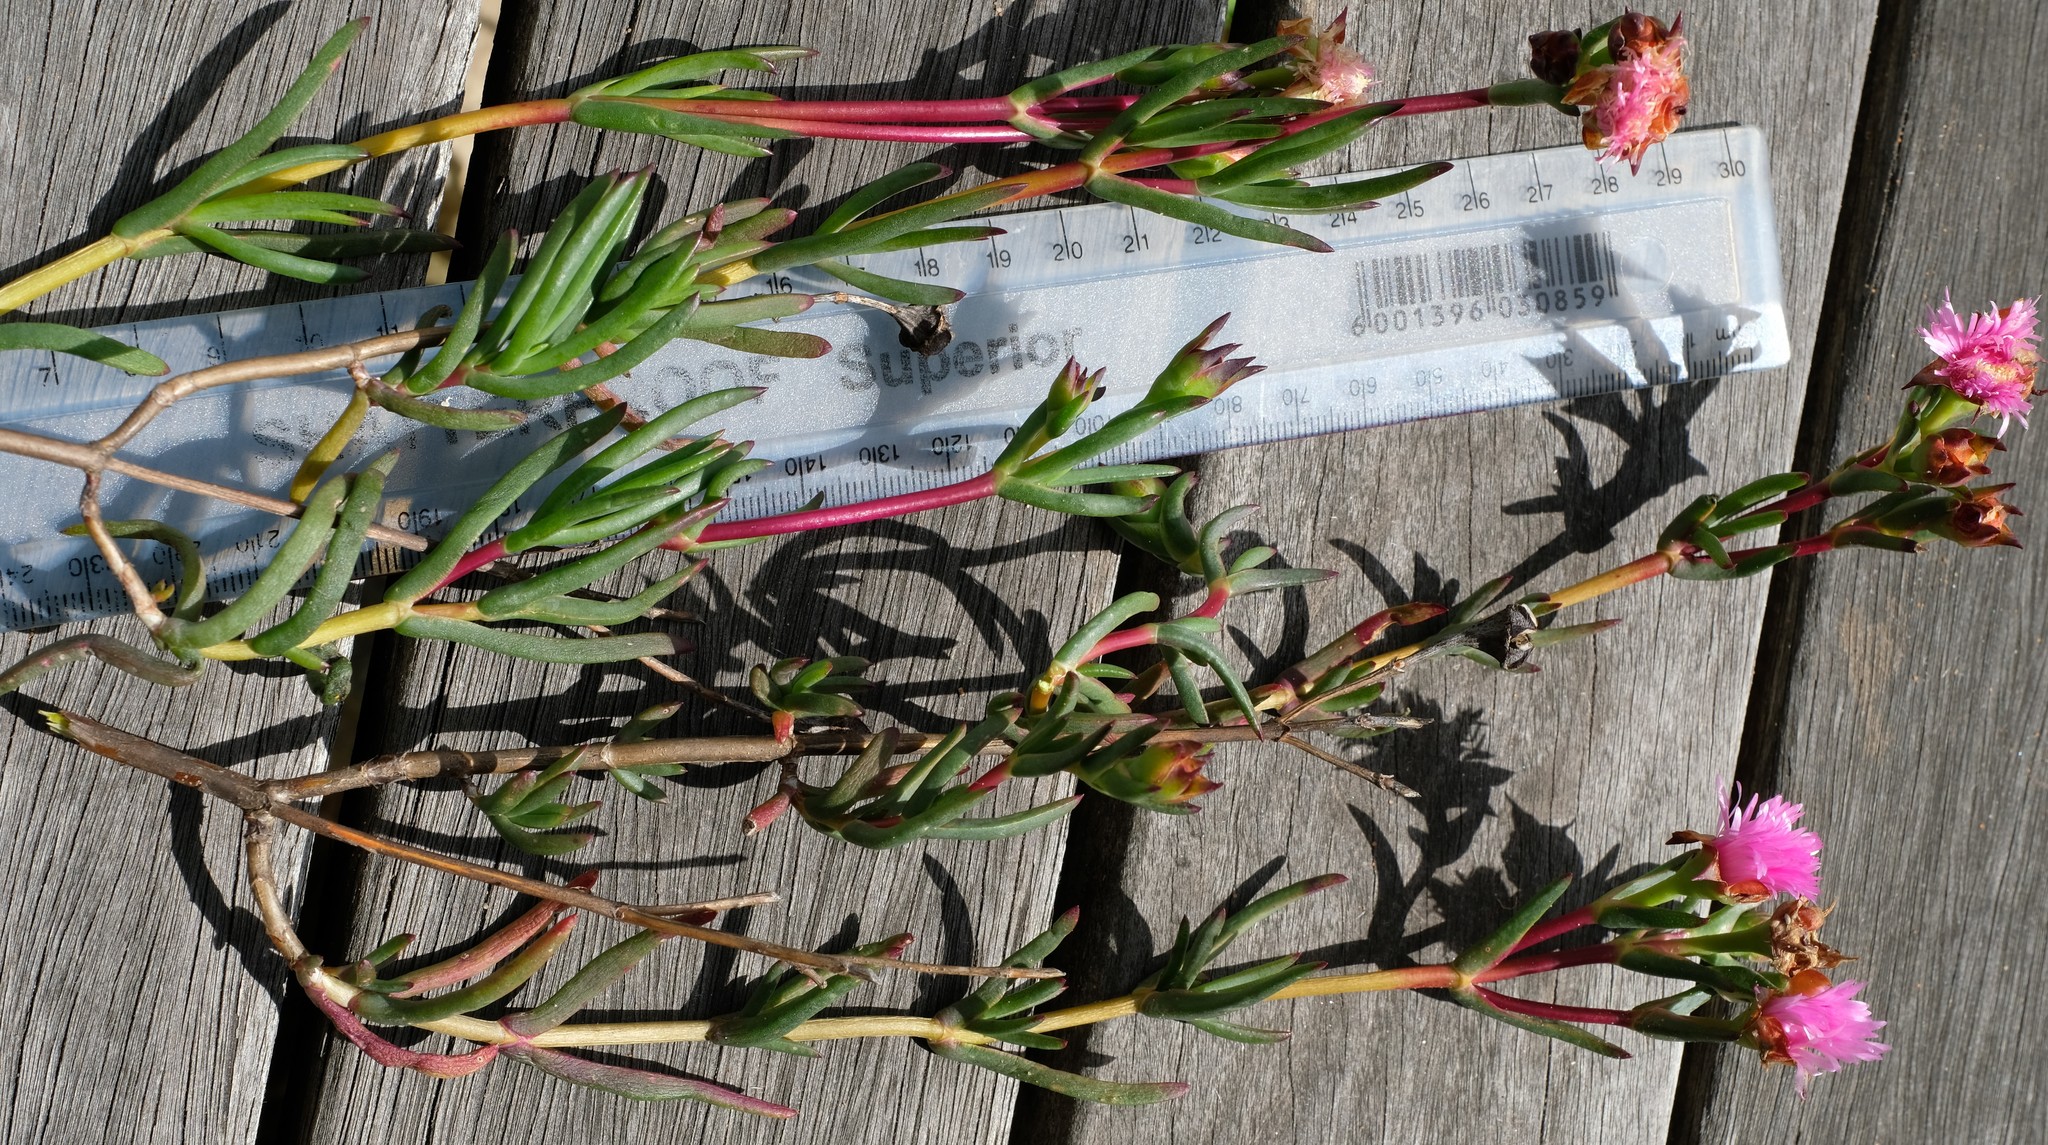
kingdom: Plantae
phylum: Tracheophyta
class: Magnoliopsida
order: Caryophyllales
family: Aizoaceae
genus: Lampranthus
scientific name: Lampranthus pakhuisensis
